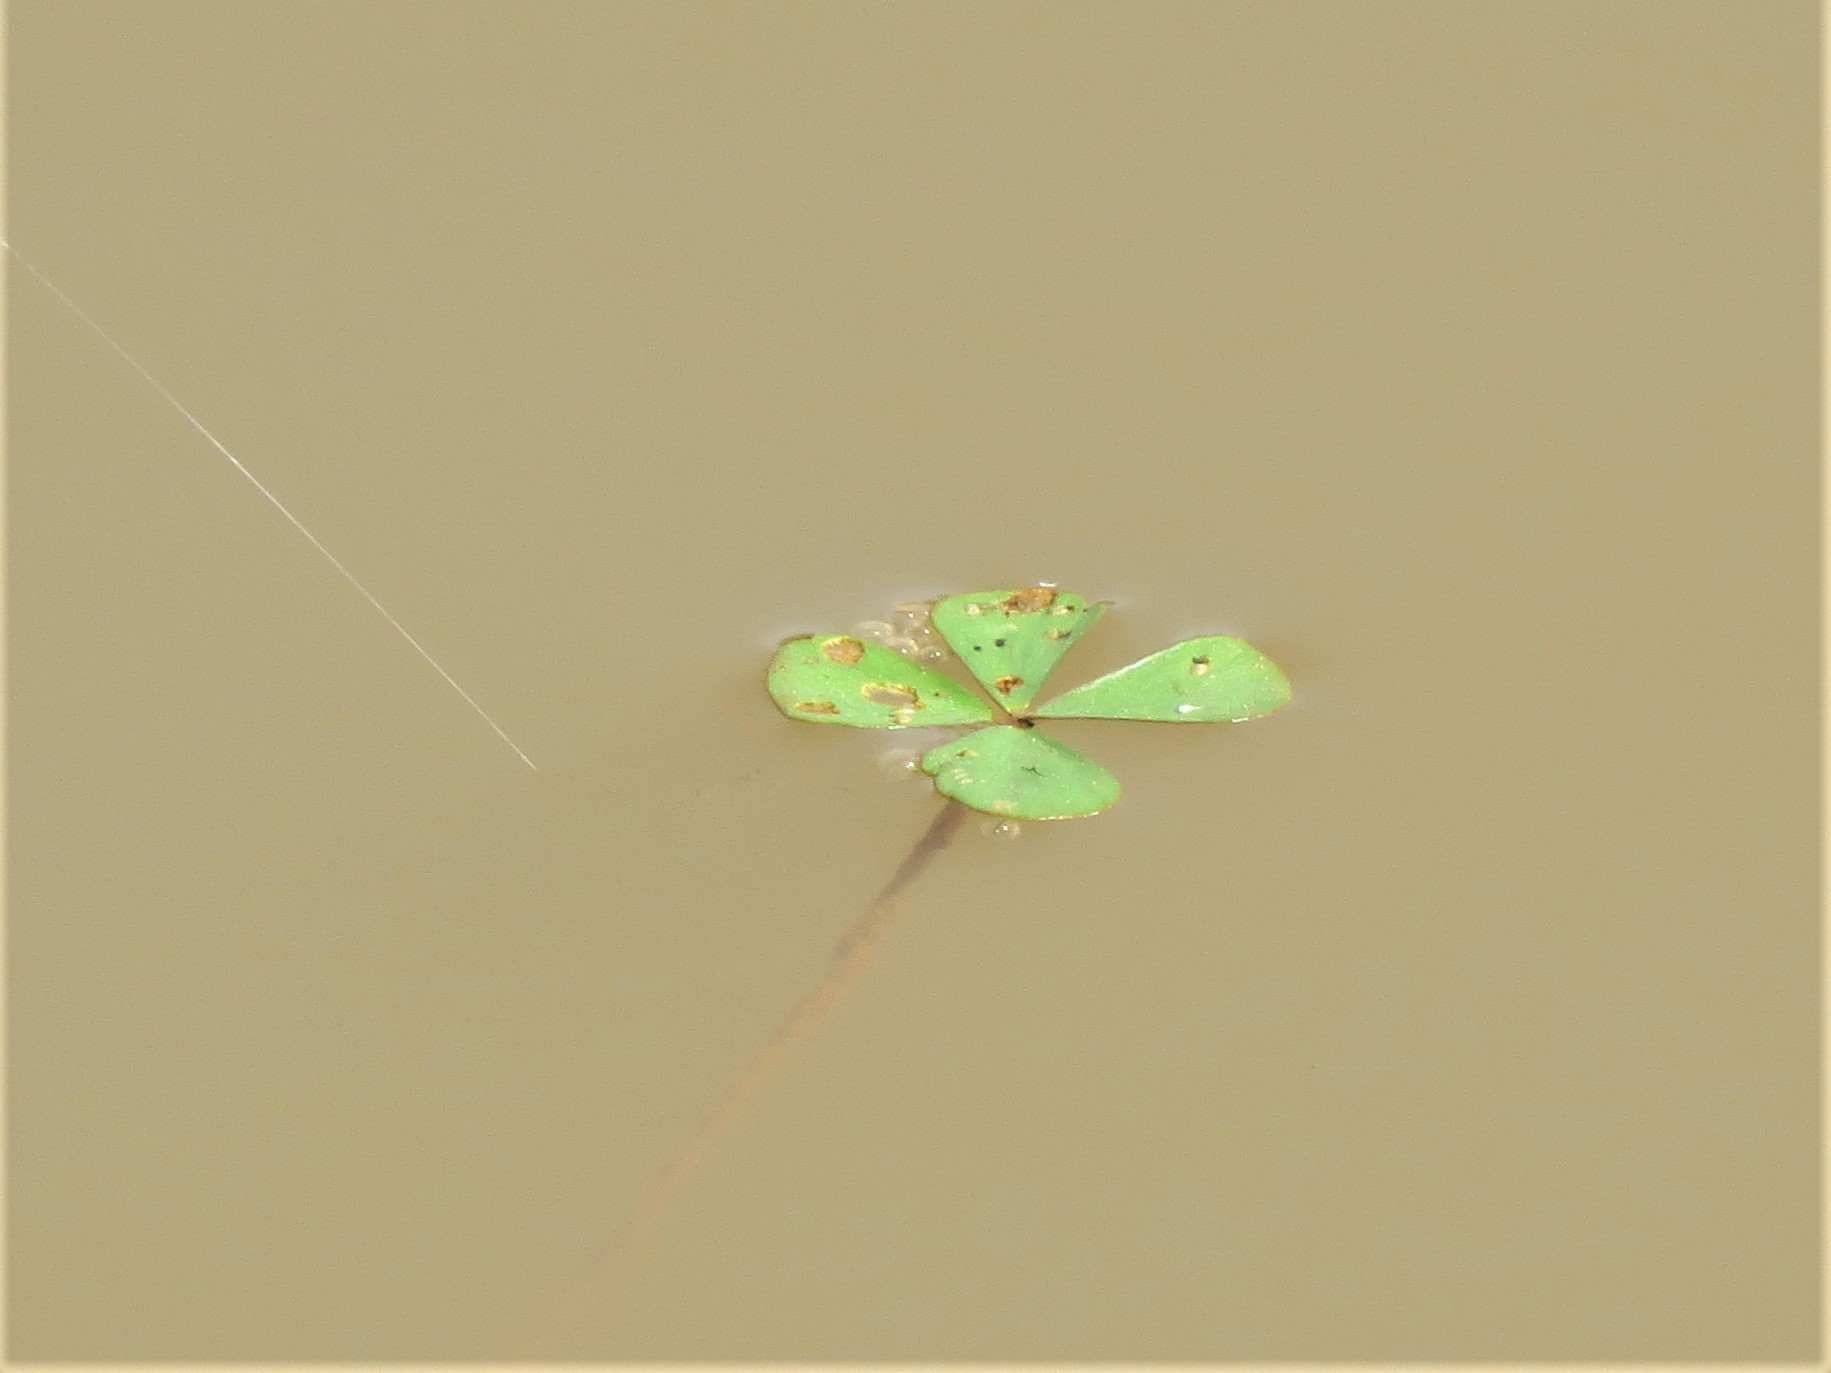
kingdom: Plantae
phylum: Tracheophyta
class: Polypodiopsida
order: Salviniales
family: Marsileaceae
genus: Marsilea
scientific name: Marsilea vestita
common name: Hooked-pepperwort
